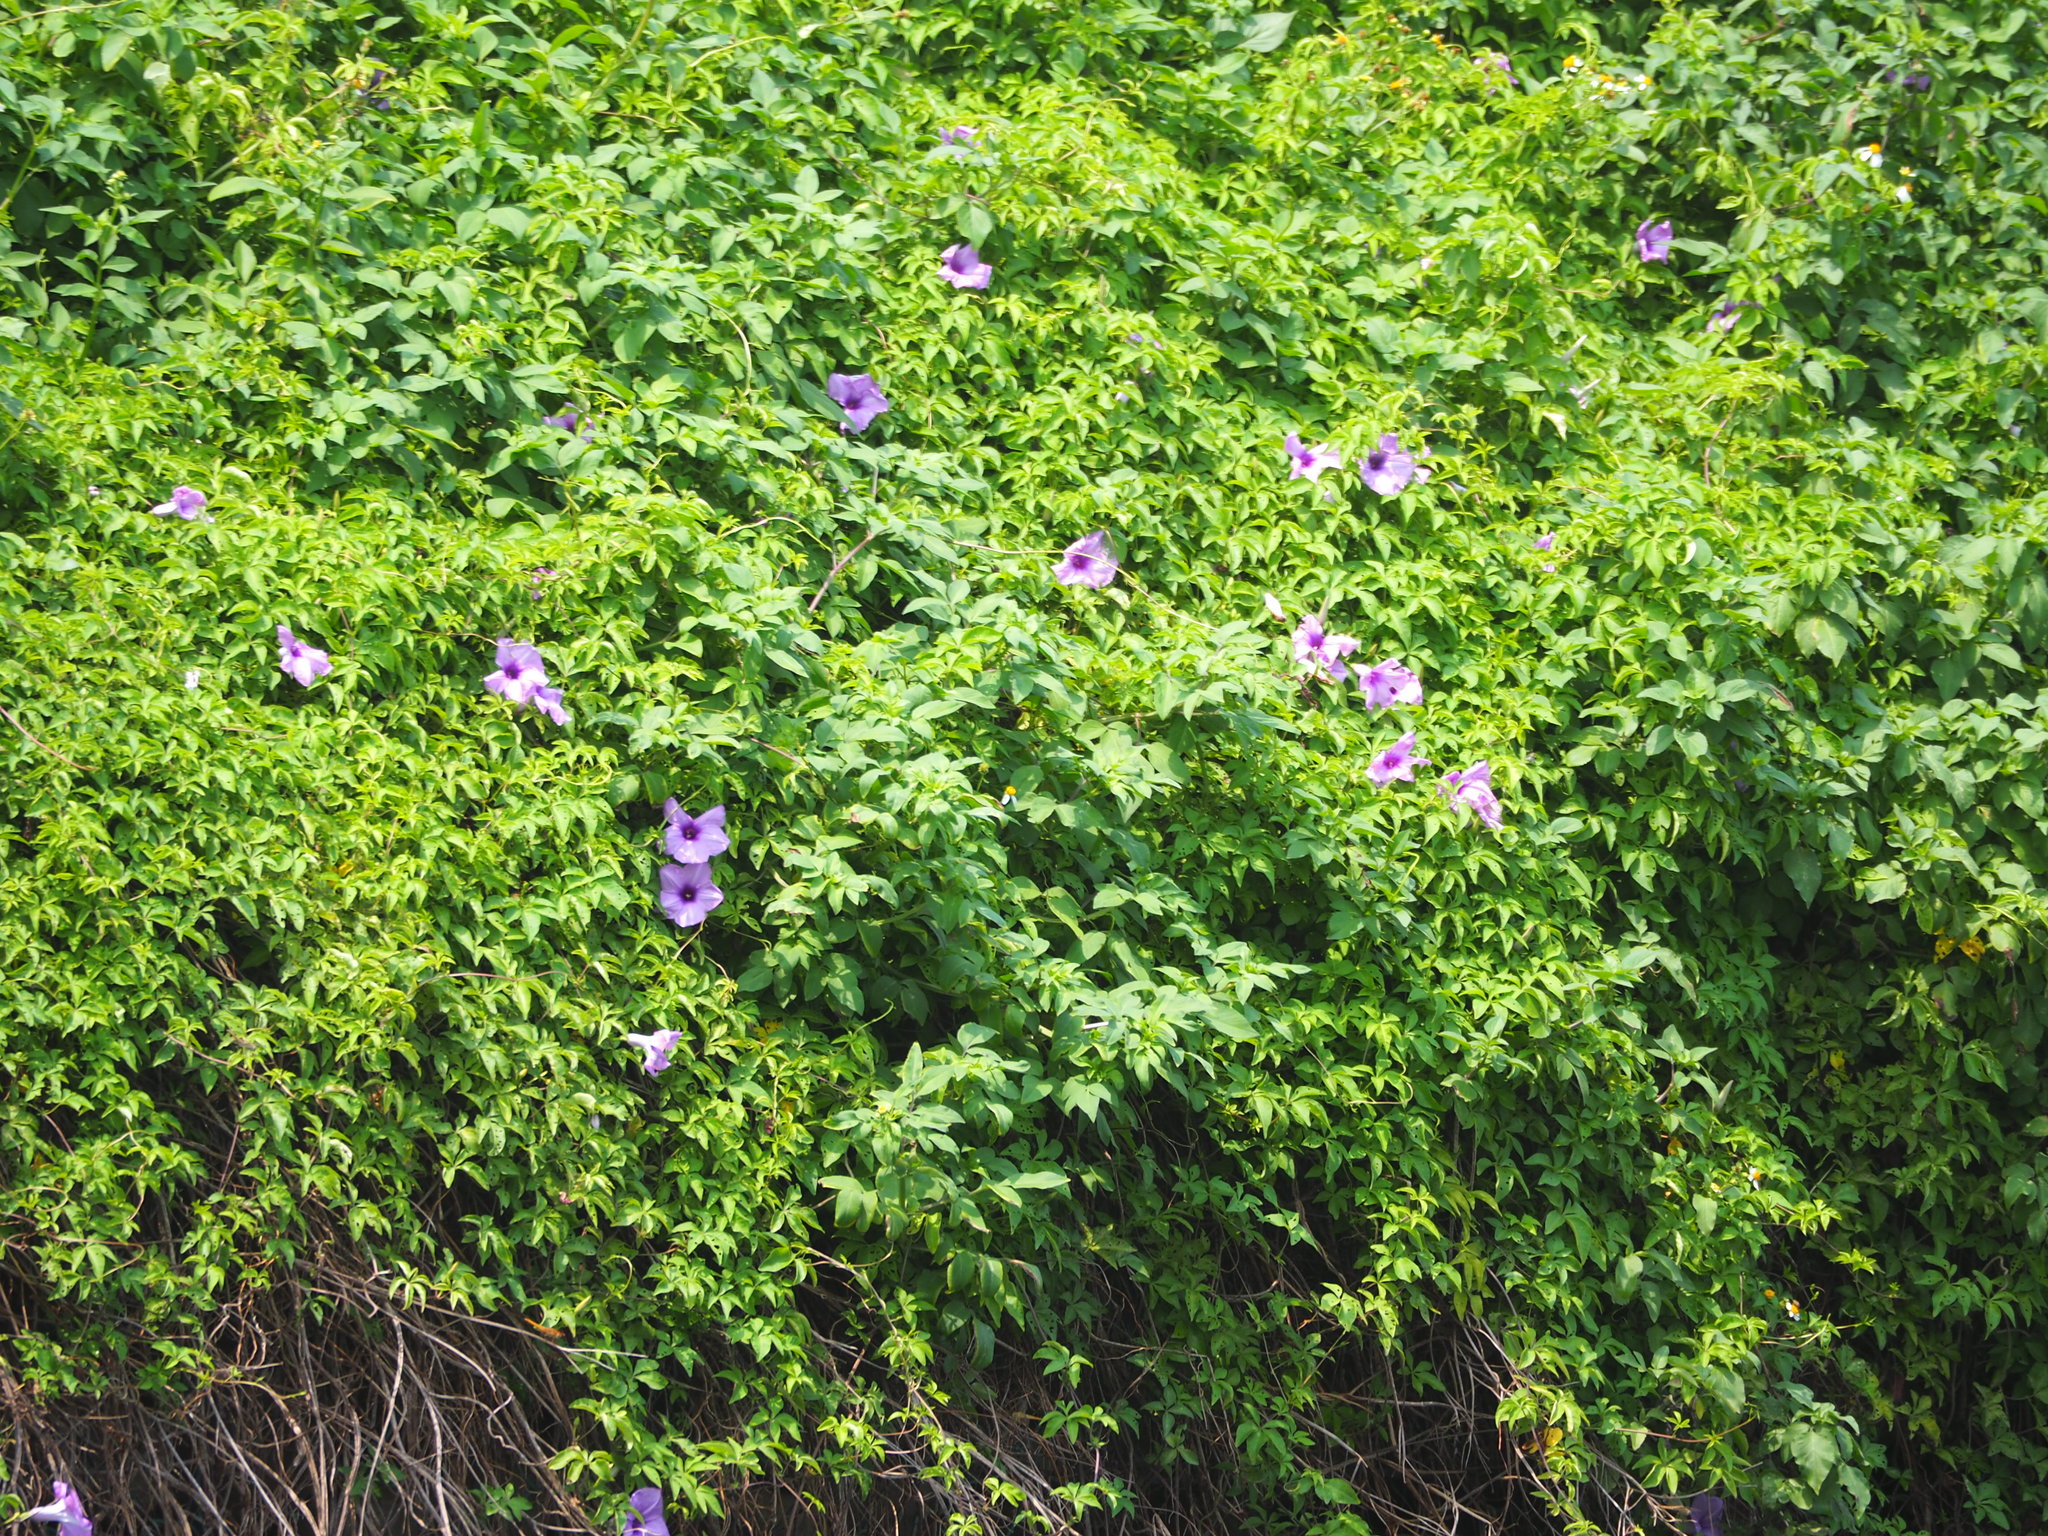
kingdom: Plantae
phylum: Tracheophyta
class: Magnoliopsida
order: Solanales
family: Convolvulaceae
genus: Ipomoea
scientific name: Ipomoea cairica
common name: Mile a minute vine
